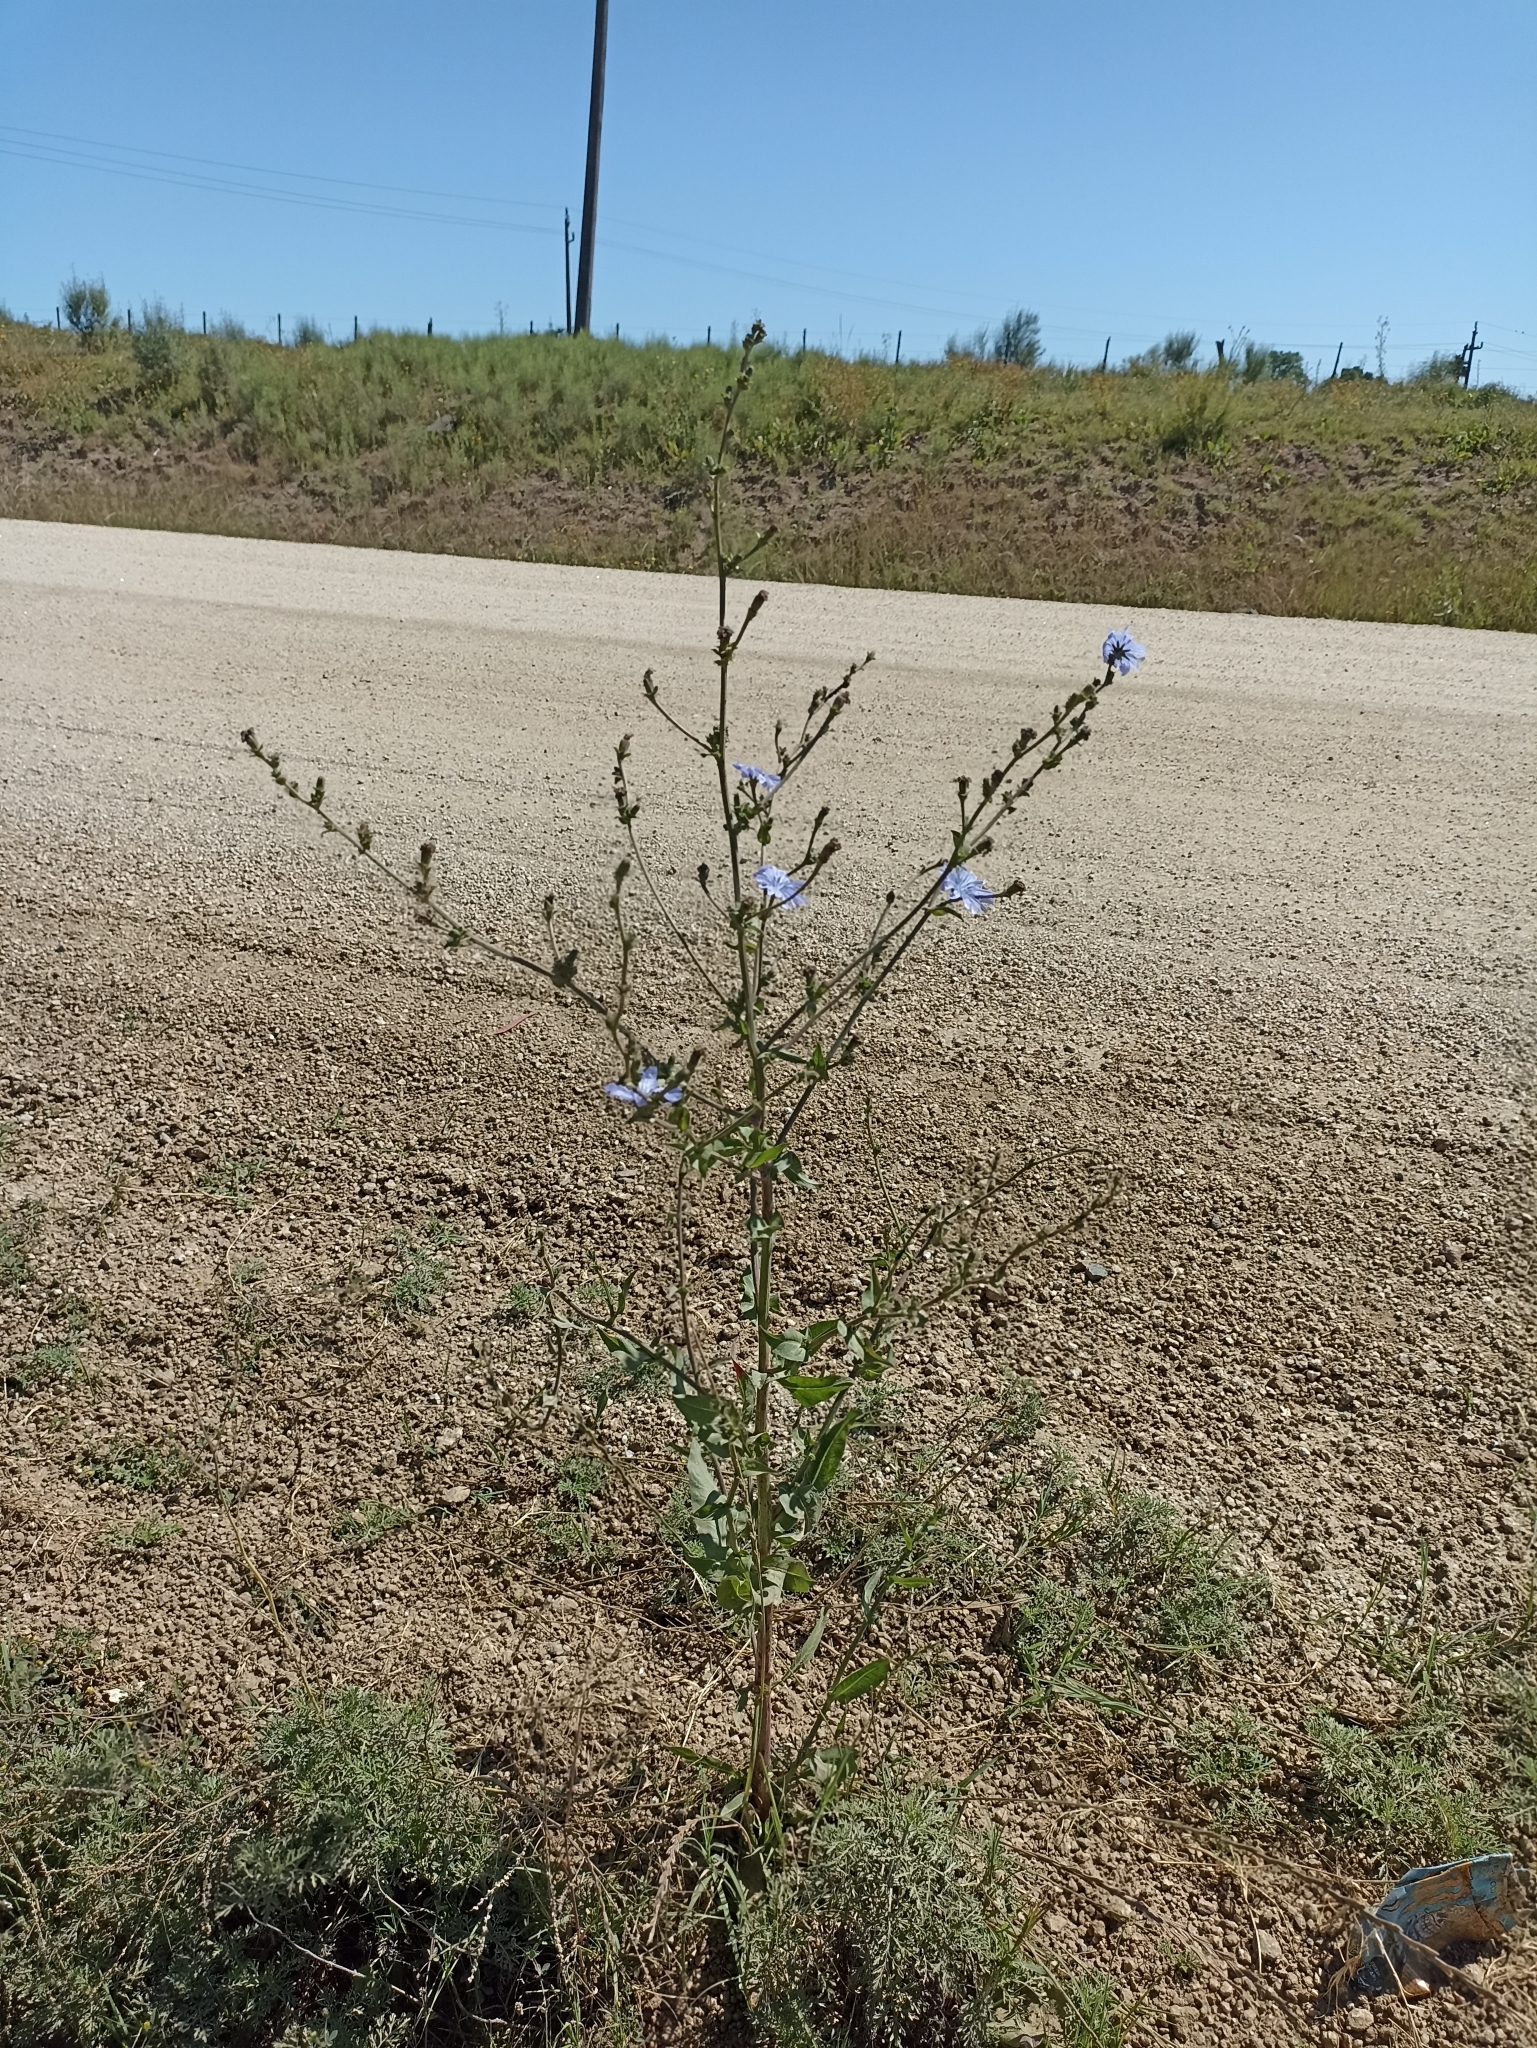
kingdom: Plantae
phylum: Tracheophyta
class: Magnoliopsida
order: Asterales
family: Asteraceae
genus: Cichorium
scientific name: Cichorium intybus
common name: Chicory
